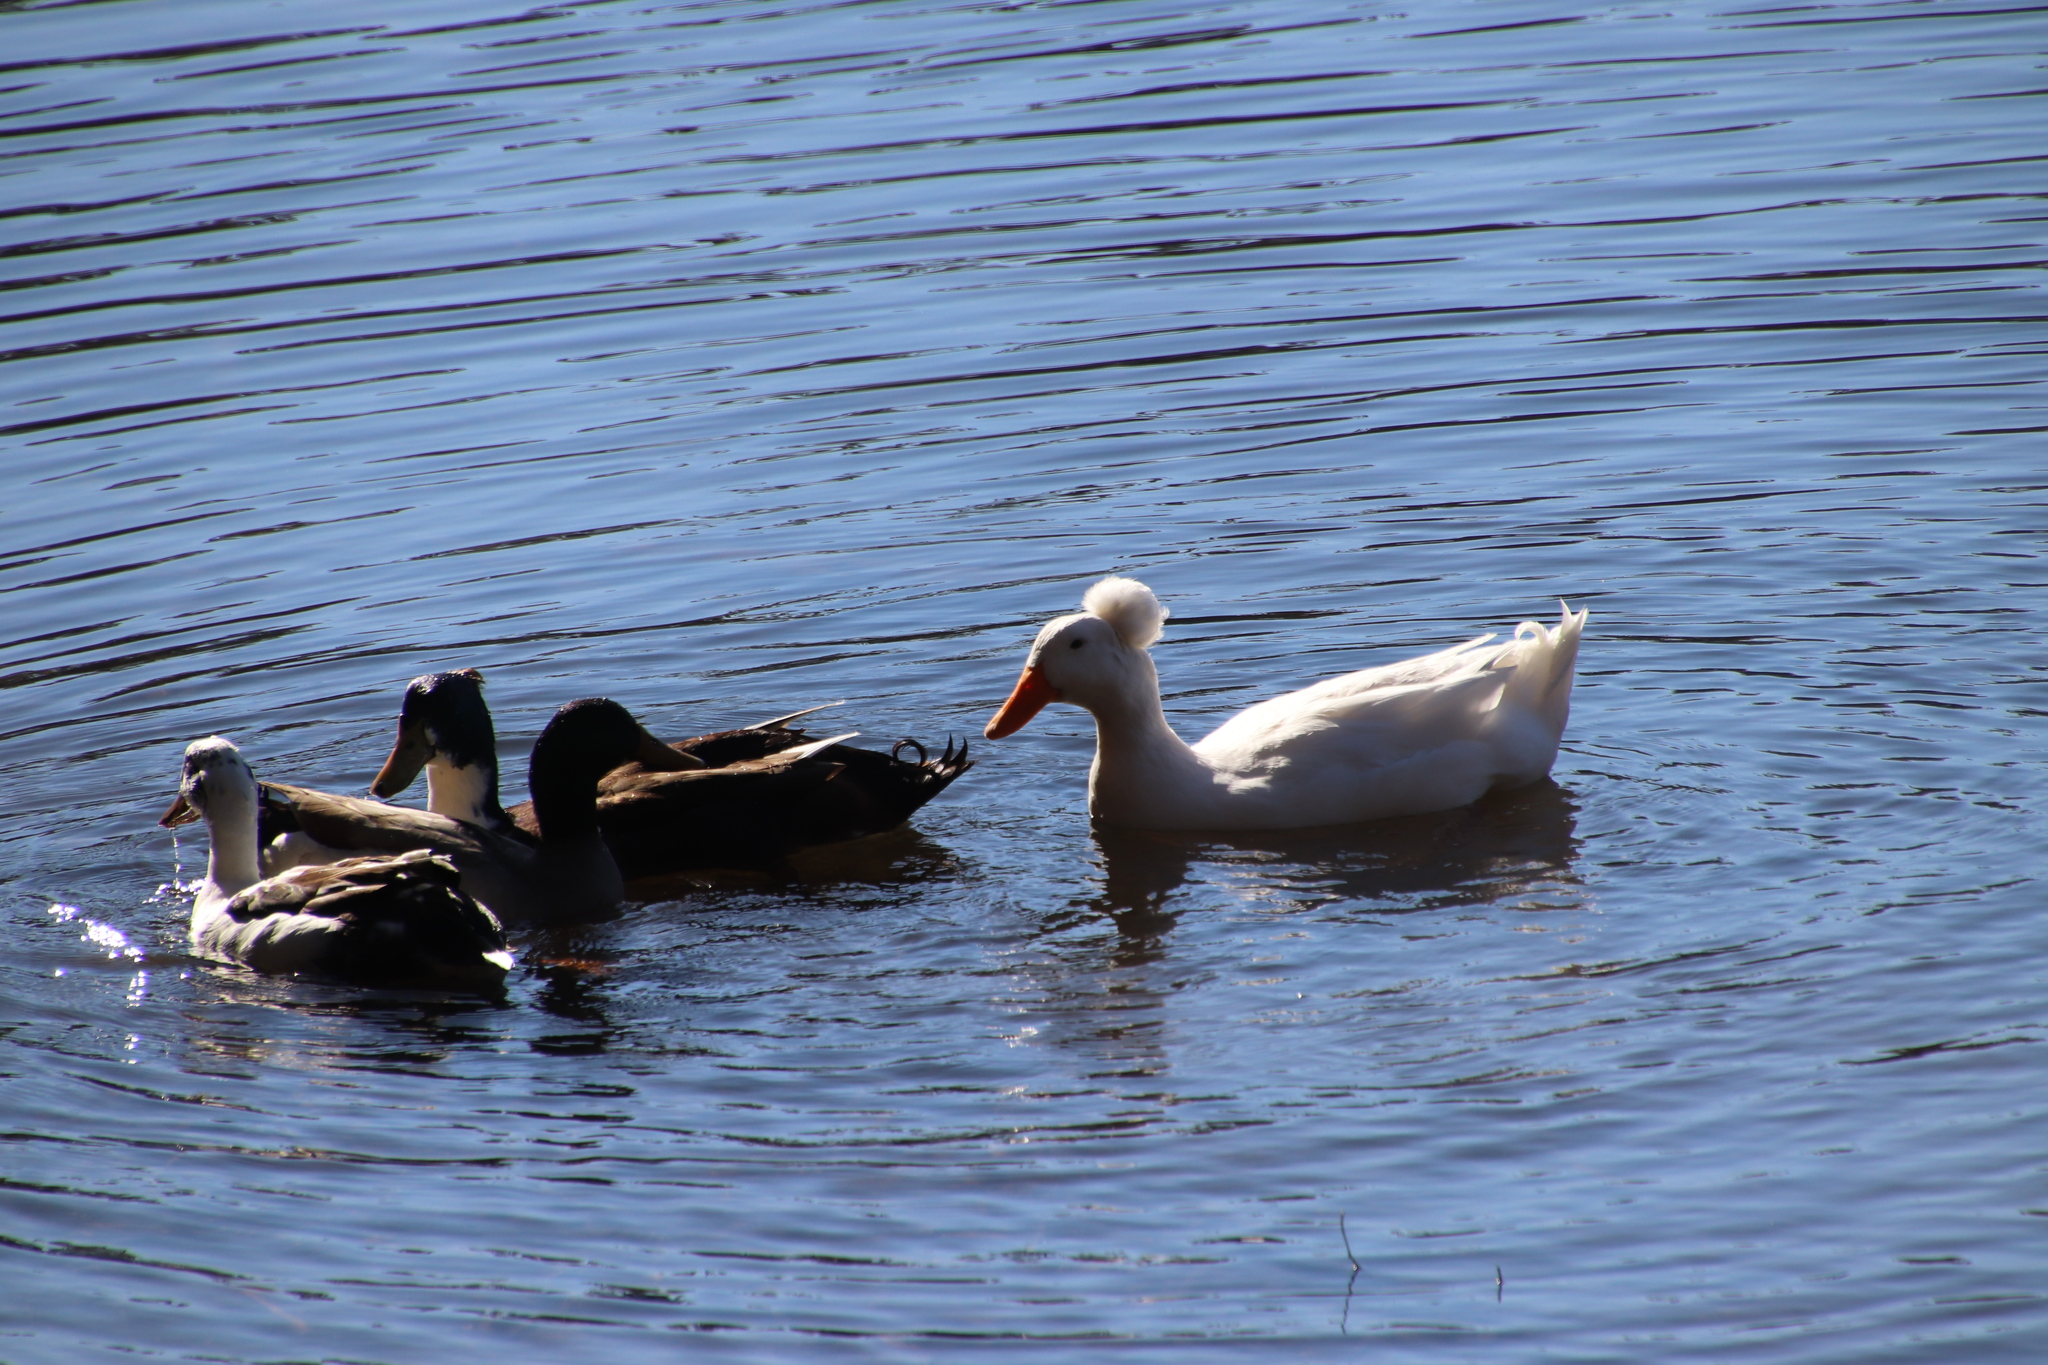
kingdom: Animalia
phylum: Chordata
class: Aves
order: Anseriformes
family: Anatidae
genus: Anas
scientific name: Anas platyrhynchos
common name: Mallard
